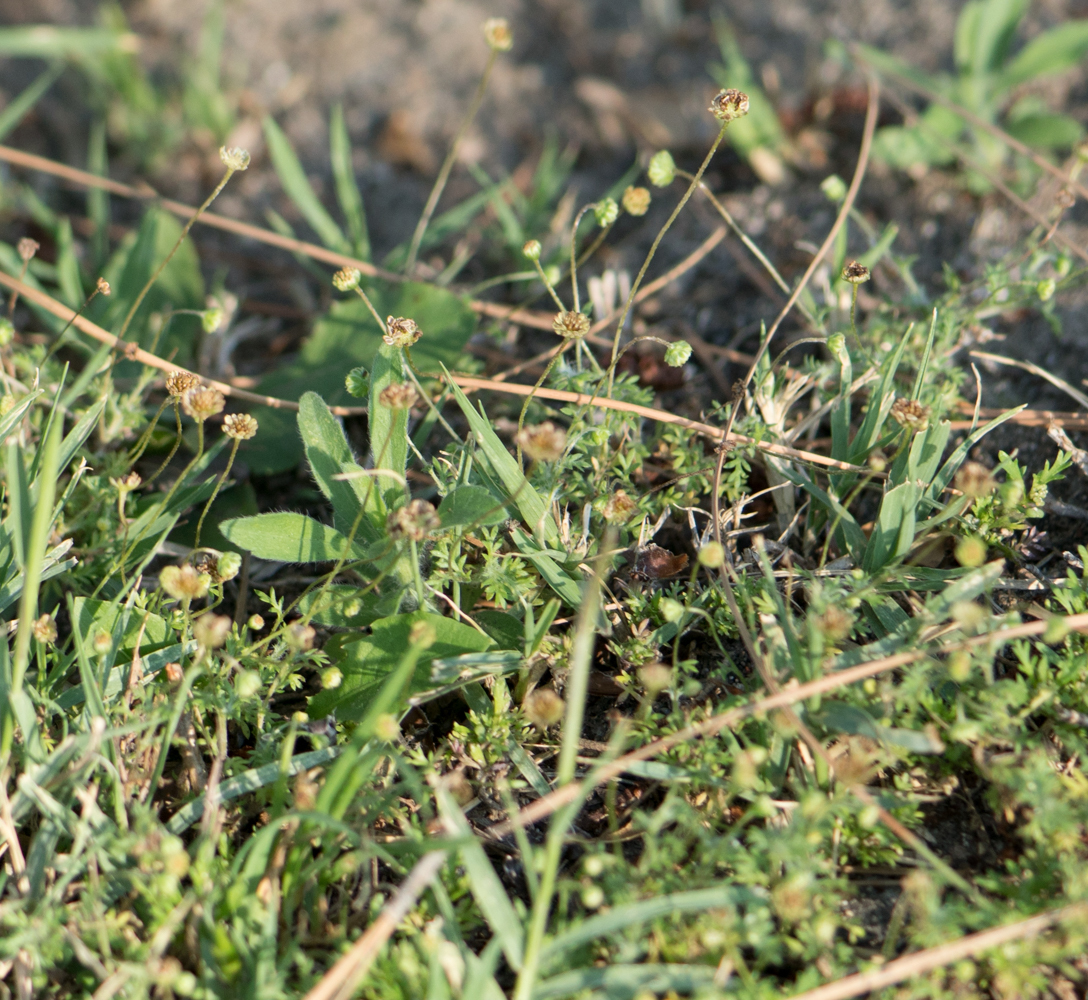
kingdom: Plantae
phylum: Tracheophyta
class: Magnoliopsida
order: Asterales
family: Asteraceae
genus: Cotula
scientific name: Cotula australis
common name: Australian waterbuttons
